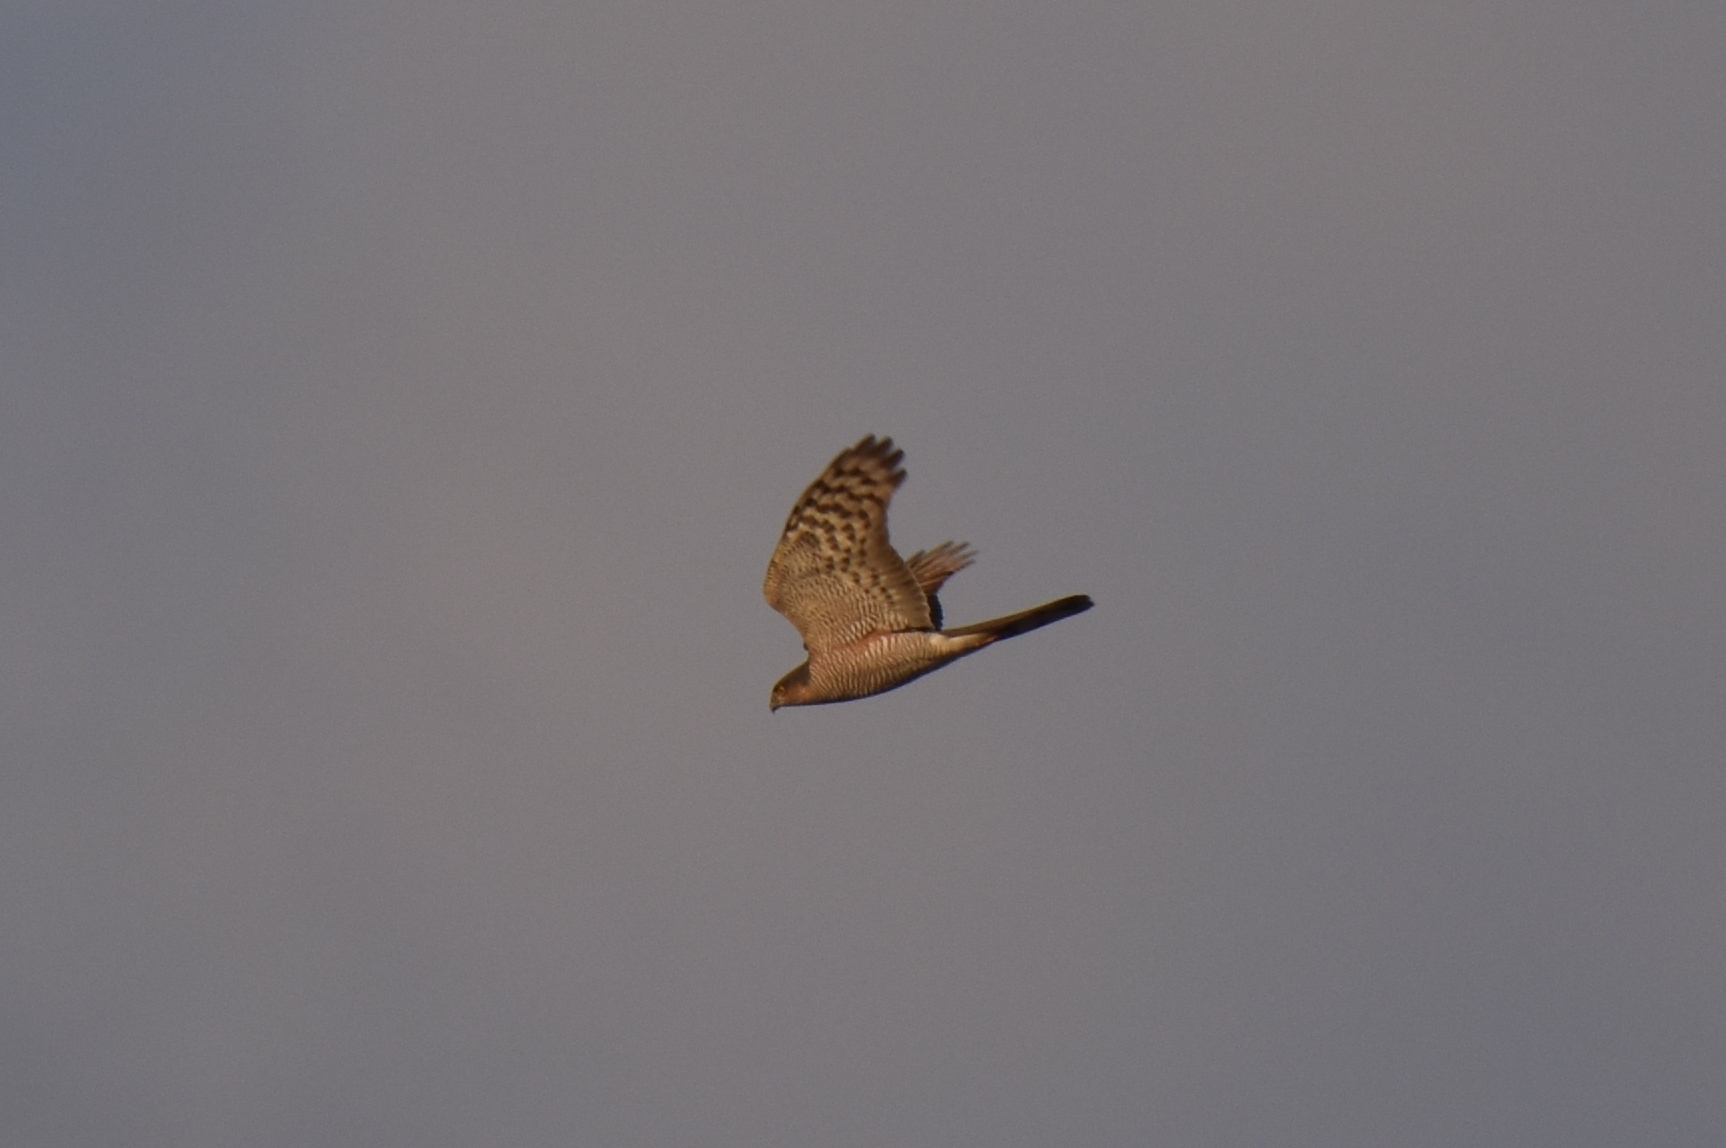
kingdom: Animalia
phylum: Chordata
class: Aves
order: Accipitriformes
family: Accipitridae
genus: Accipiter
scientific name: Accipiter nisus
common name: Eurasian sparrowhawk
